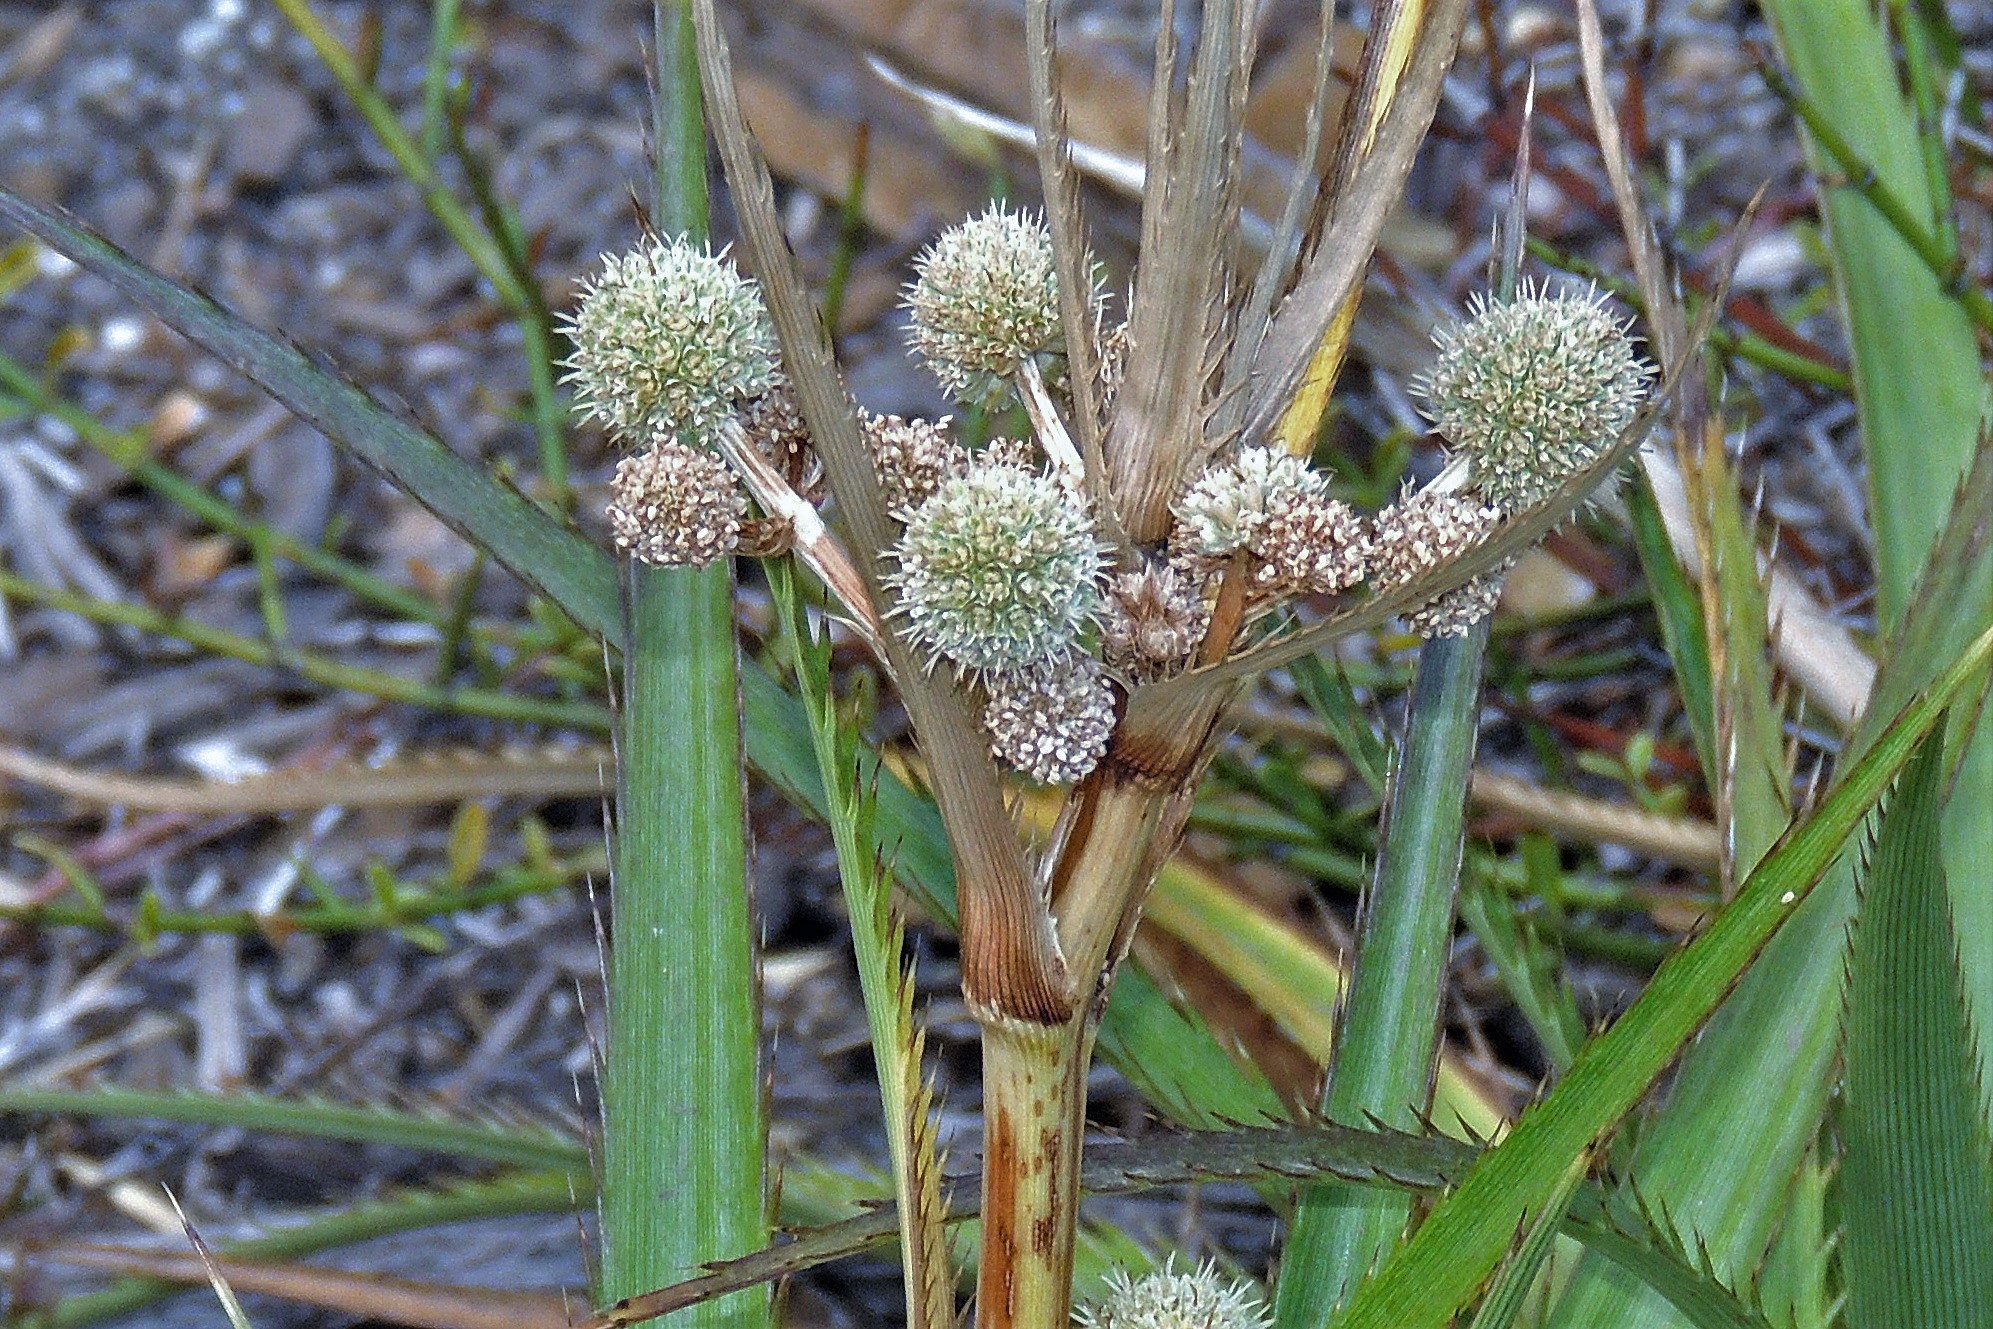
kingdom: Plantae
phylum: Tracheophyta
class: Magnoliopsida
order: Apiales
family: Apiaceae
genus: Eryngium
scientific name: Eryngium humboldtii
